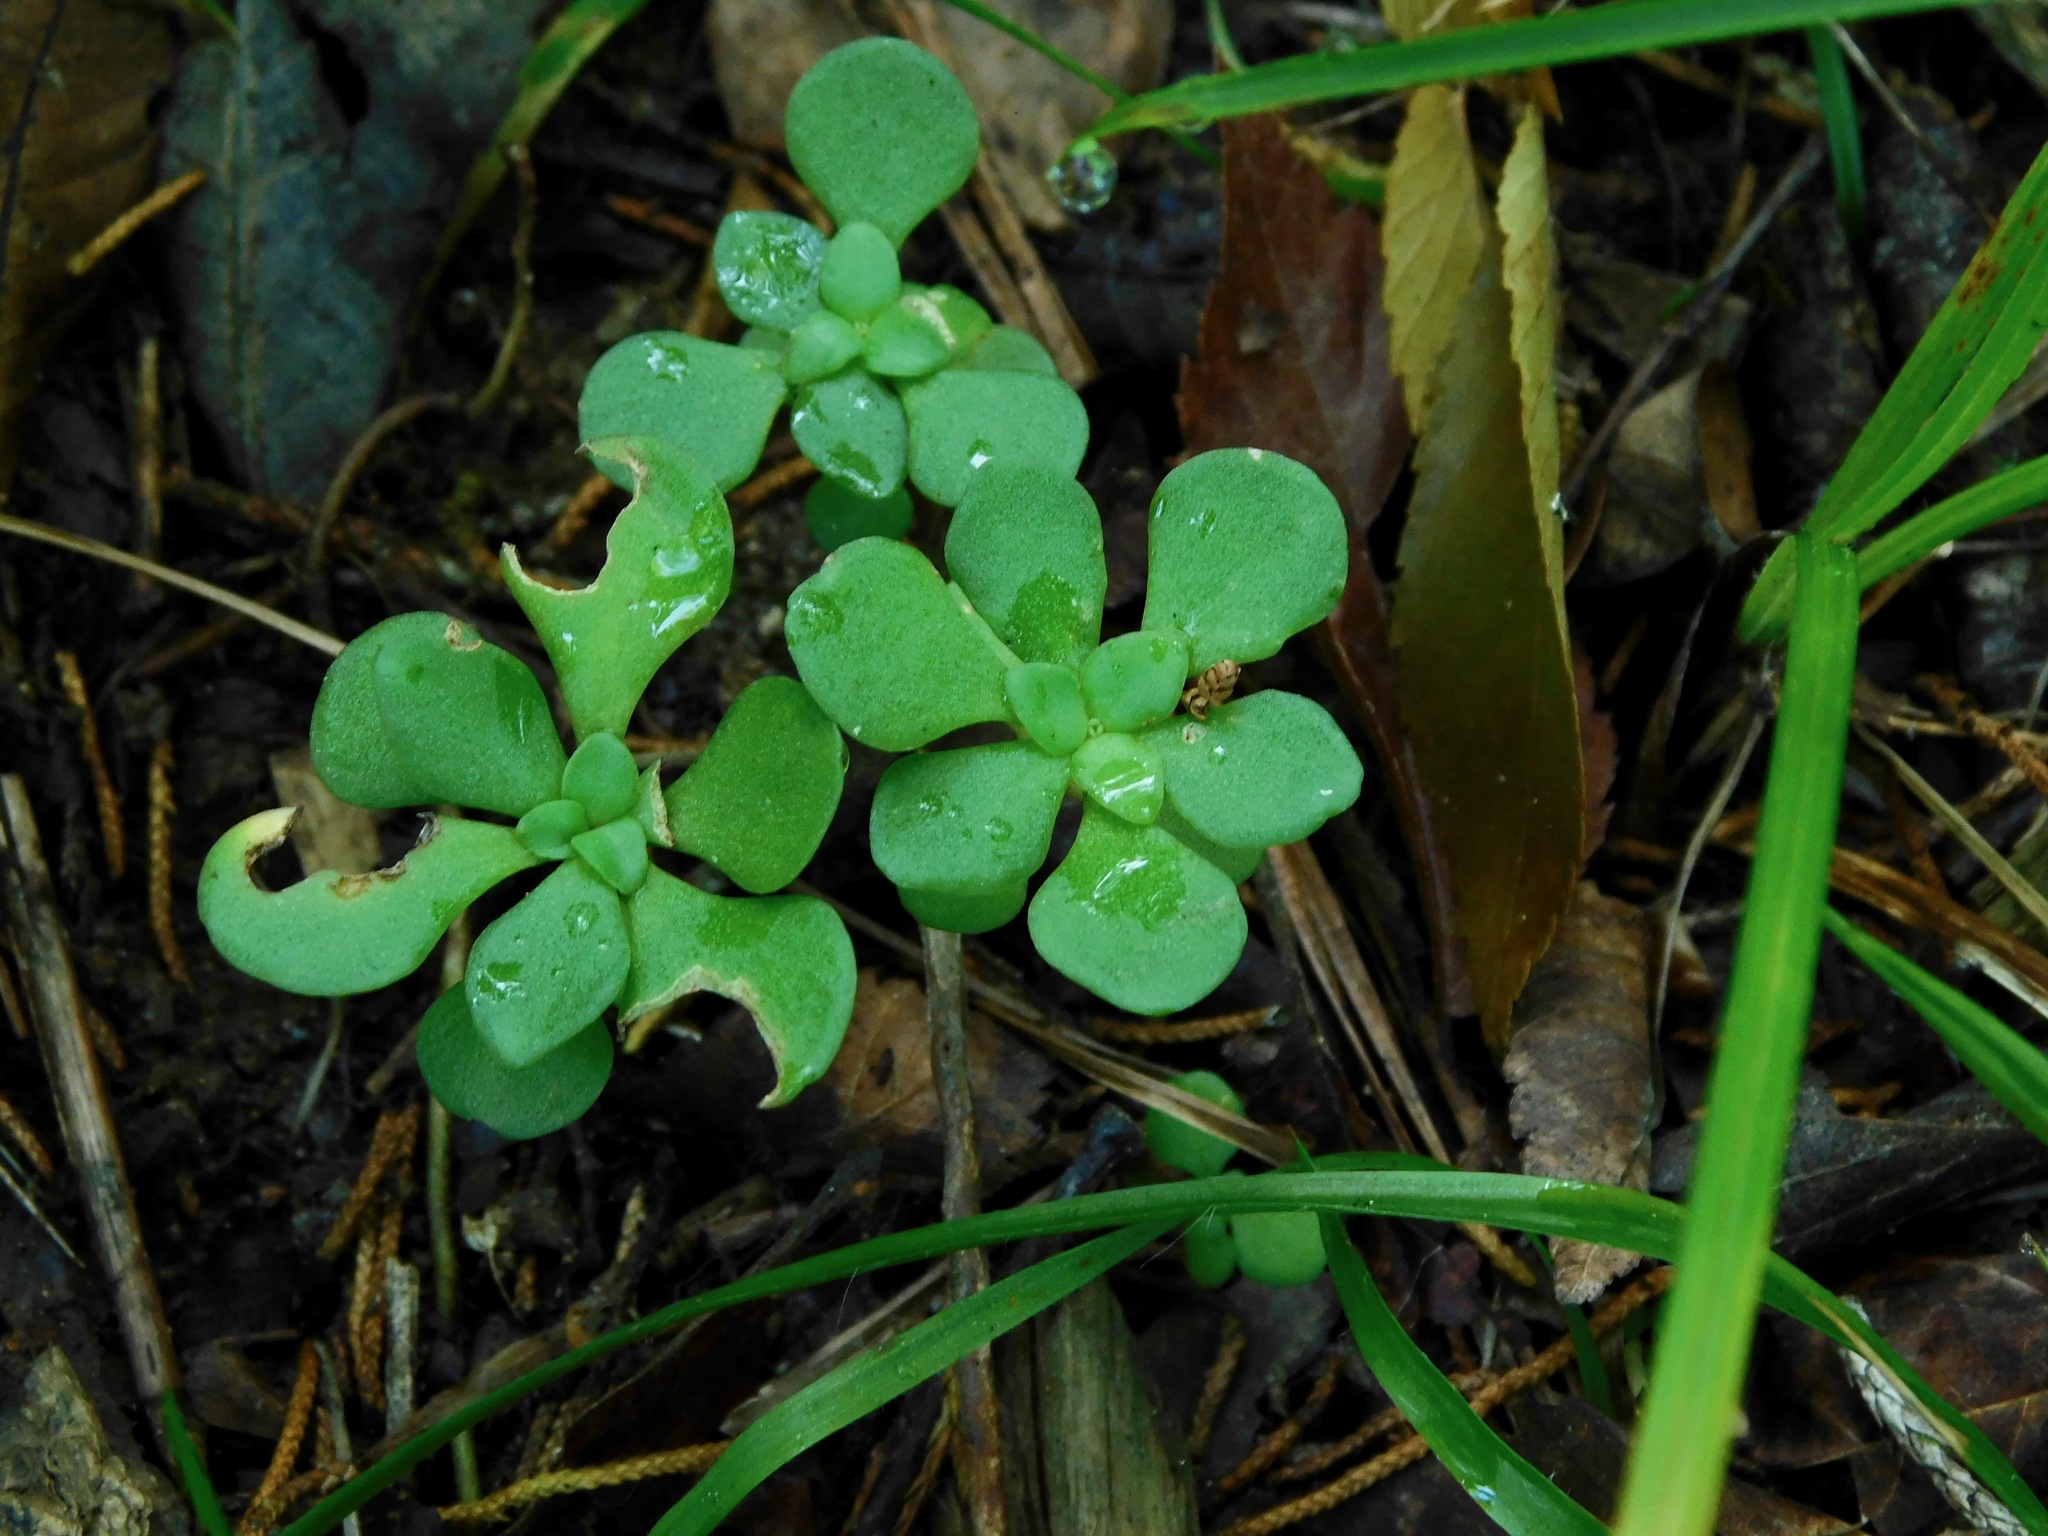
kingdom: Plantae
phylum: Tracheophyta
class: Magnoliopsida
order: Saxifragales
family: Crassulaceae
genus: Sedum
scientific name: Sedum ternatum
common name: Wild stonecrop
